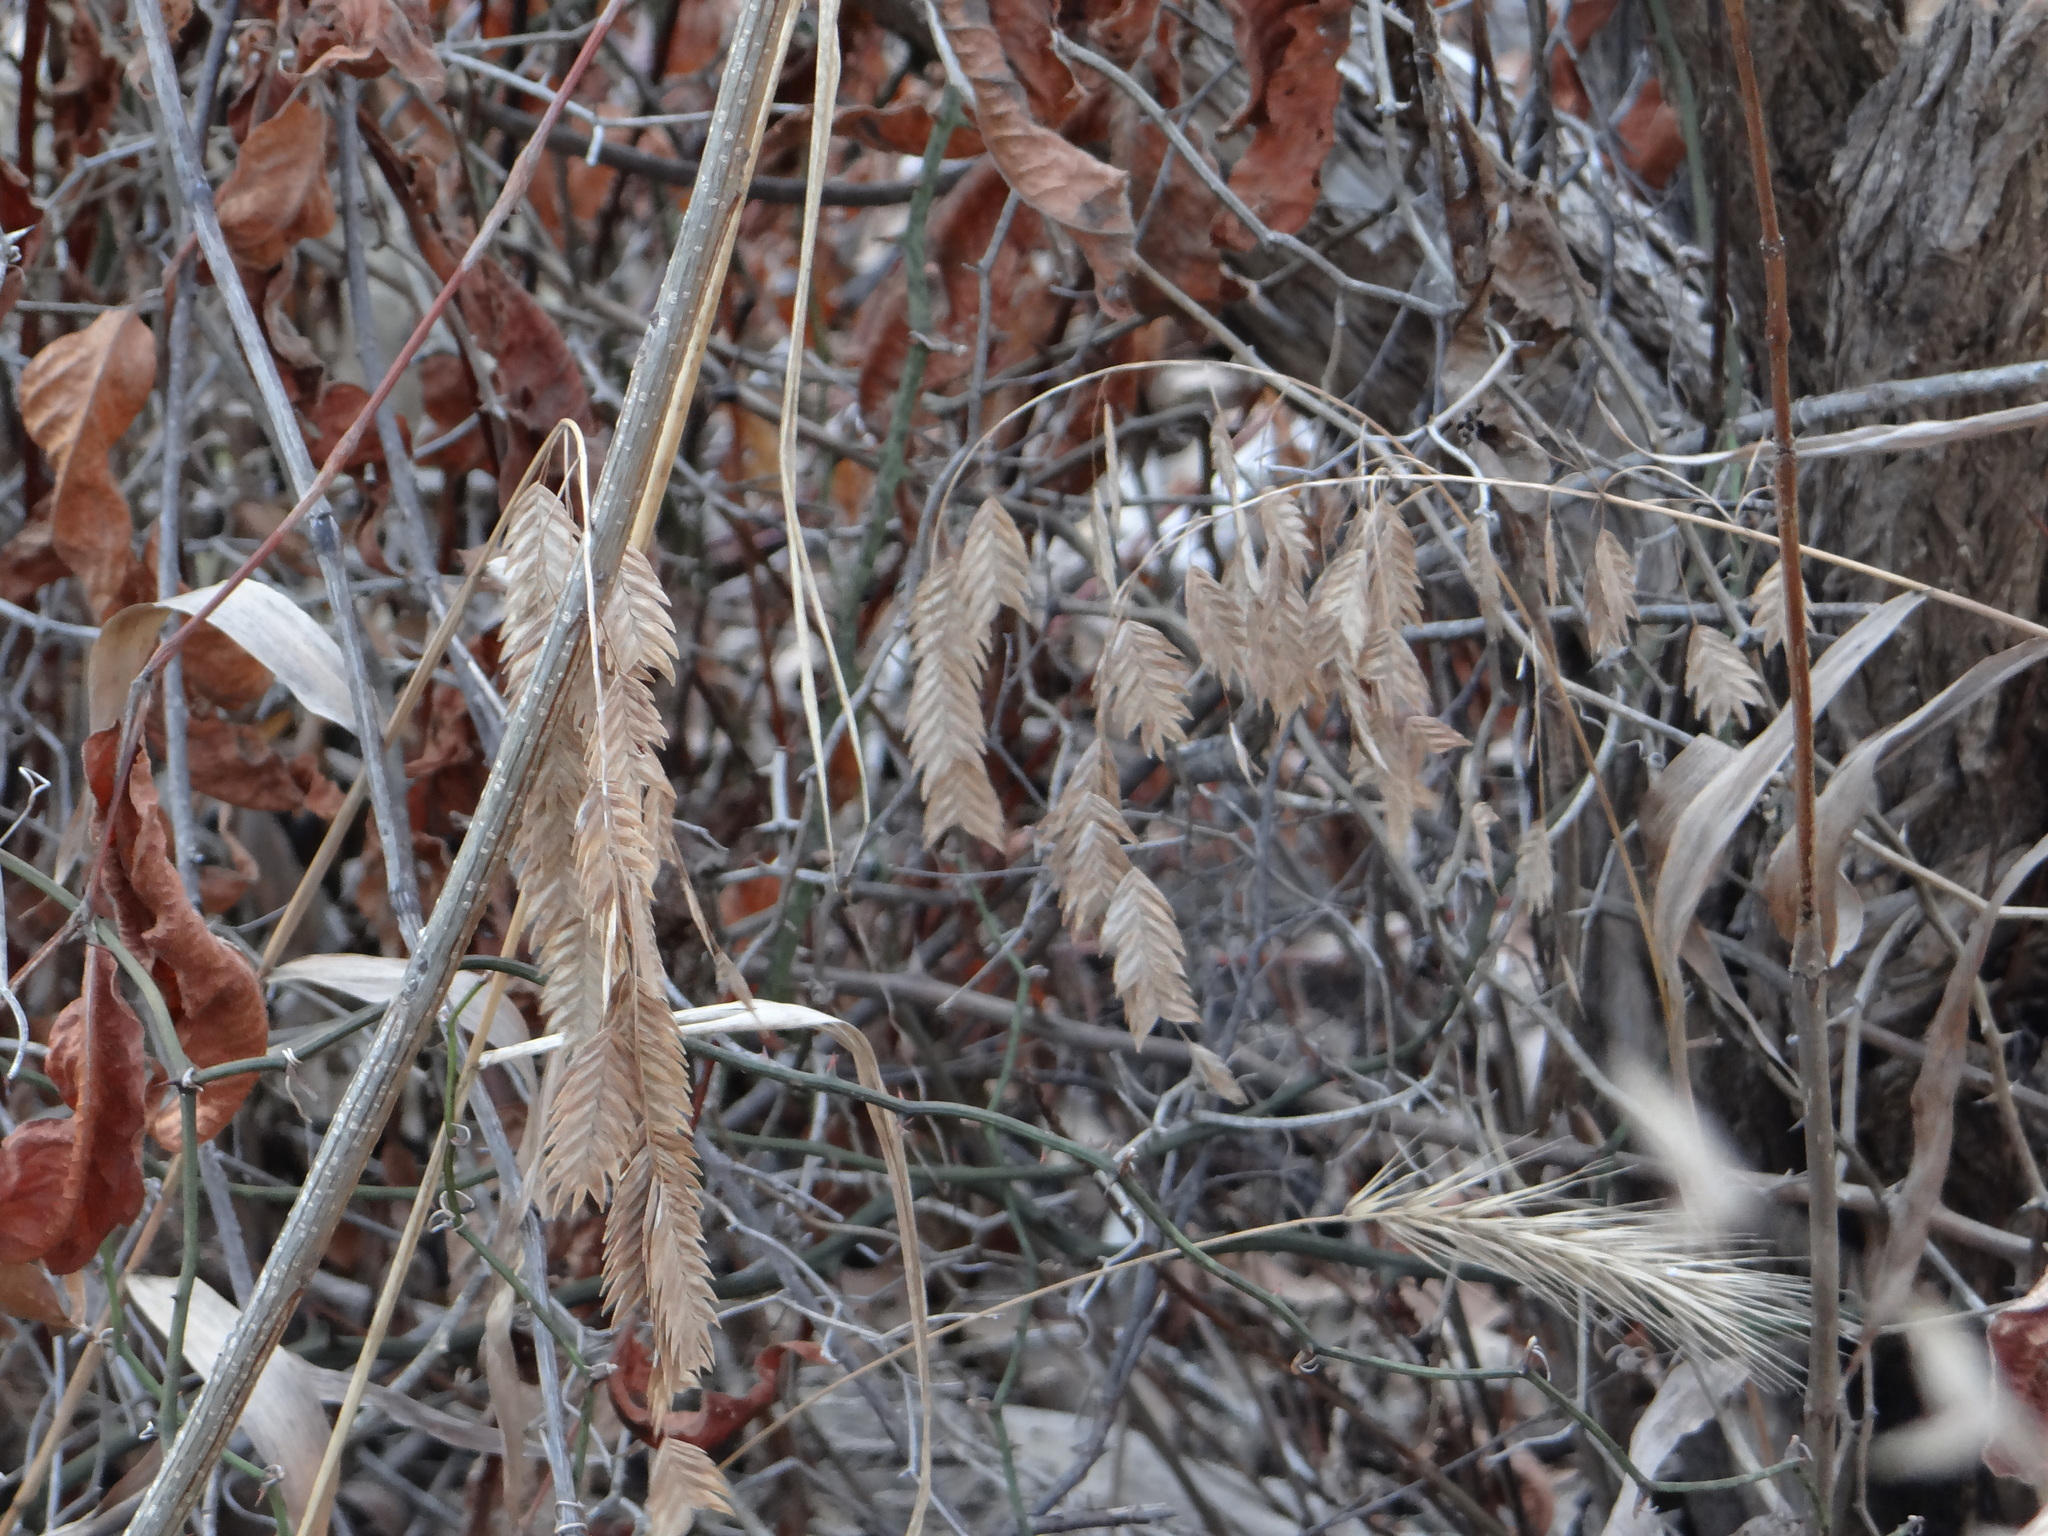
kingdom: Plantae
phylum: Tracheophyta
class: Liliopsida
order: Poales
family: Poaceae
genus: Chasmanthium
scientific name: Chasmanthium latifolium
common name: Broad-leaved chasmanthium
